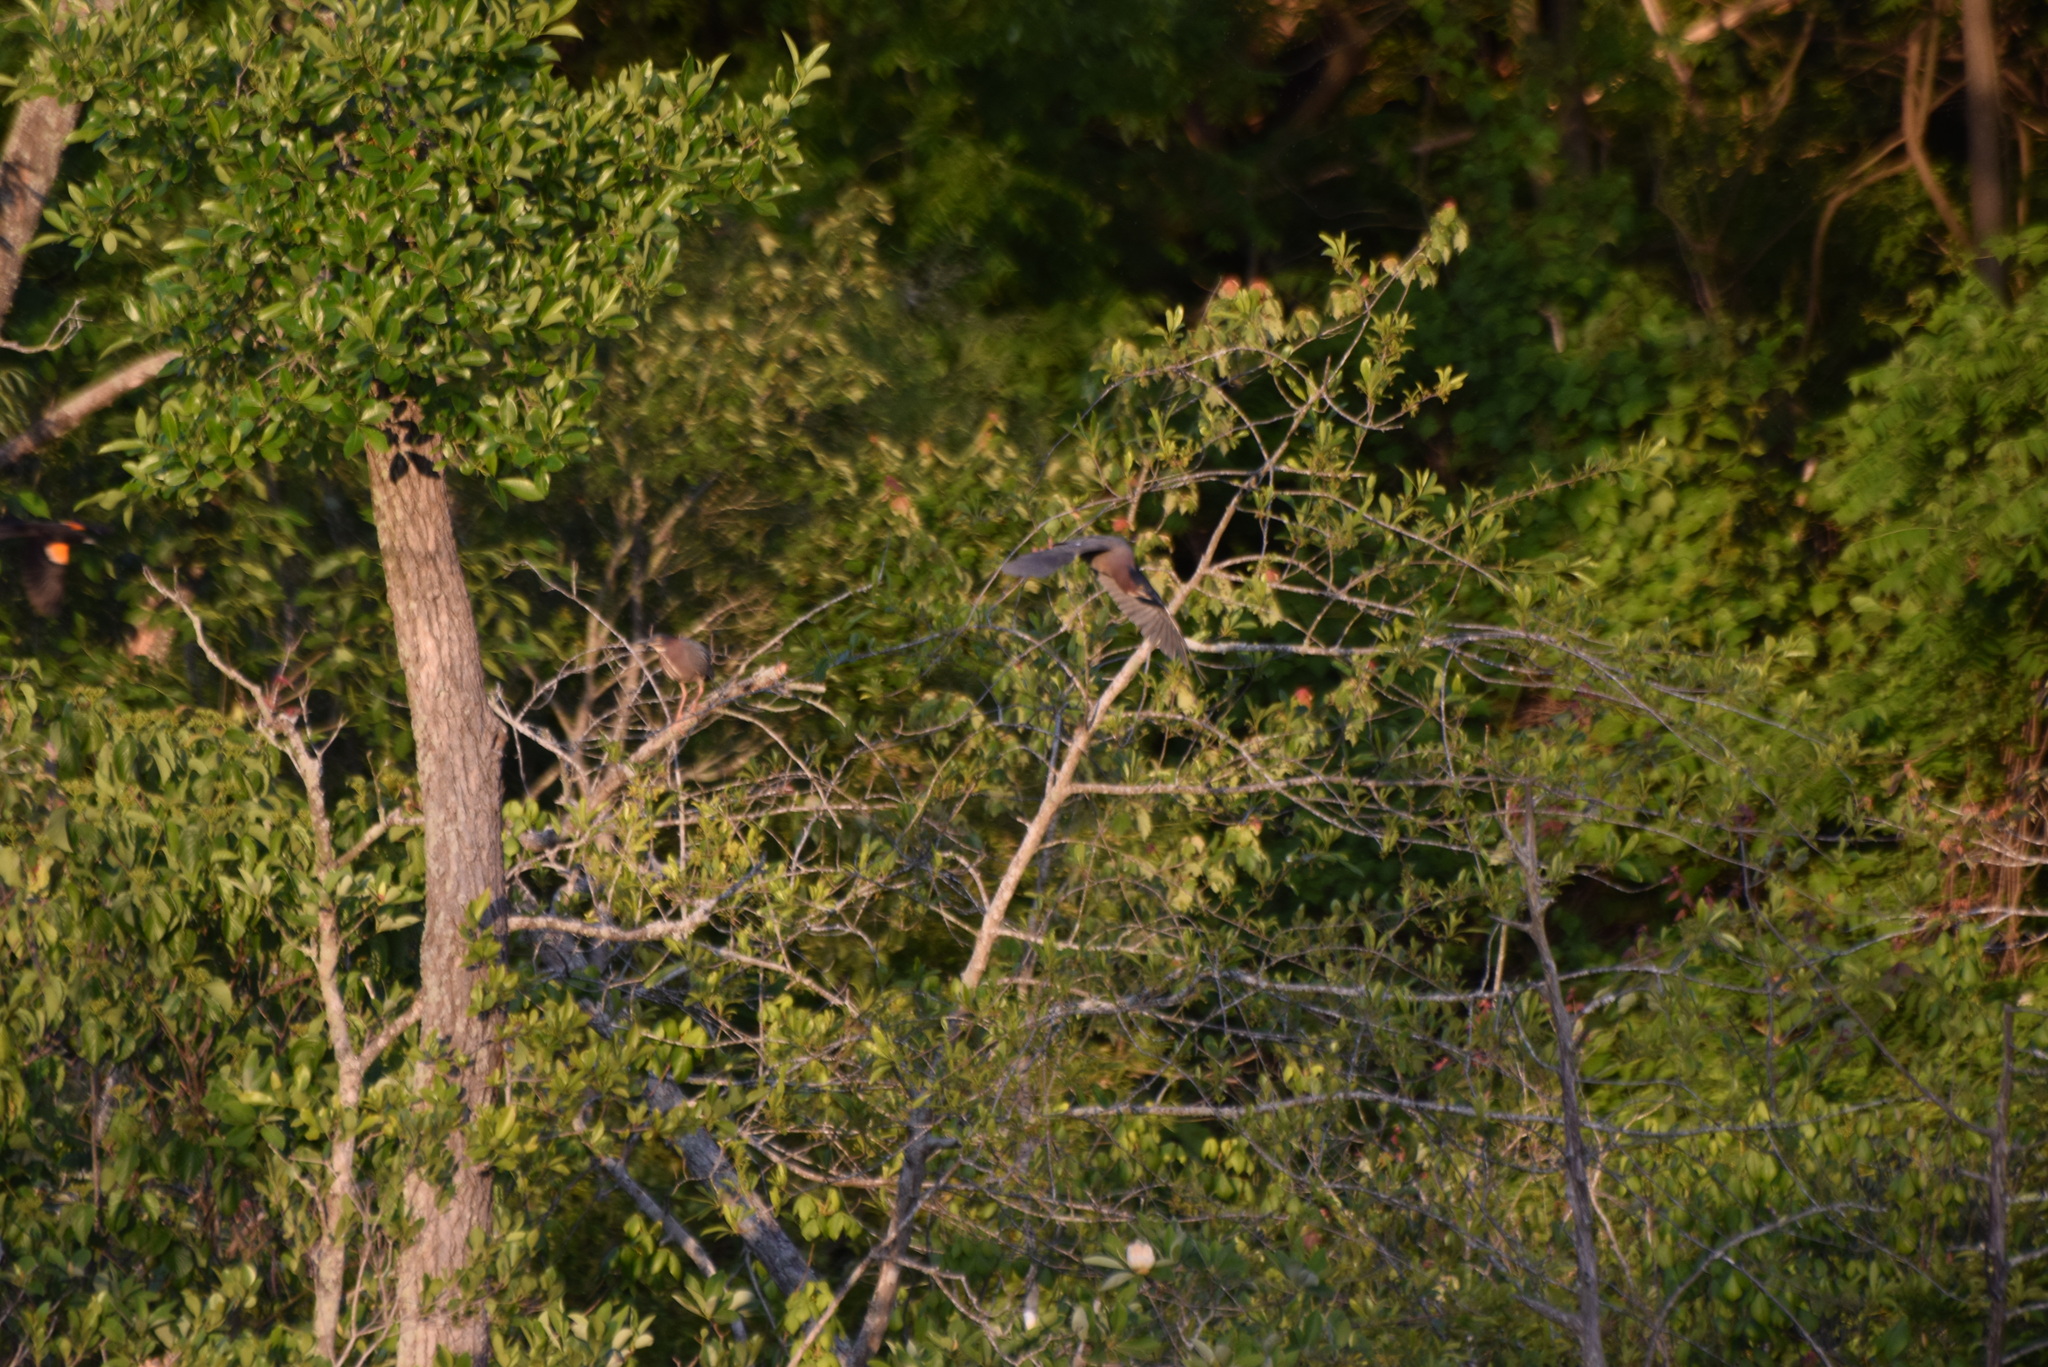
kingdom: Animalia
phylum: Chordata
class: Aves
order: Pelecaniformes
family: Ardeidae
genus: Butorides
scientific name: Butorides virescens
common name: Green heron
